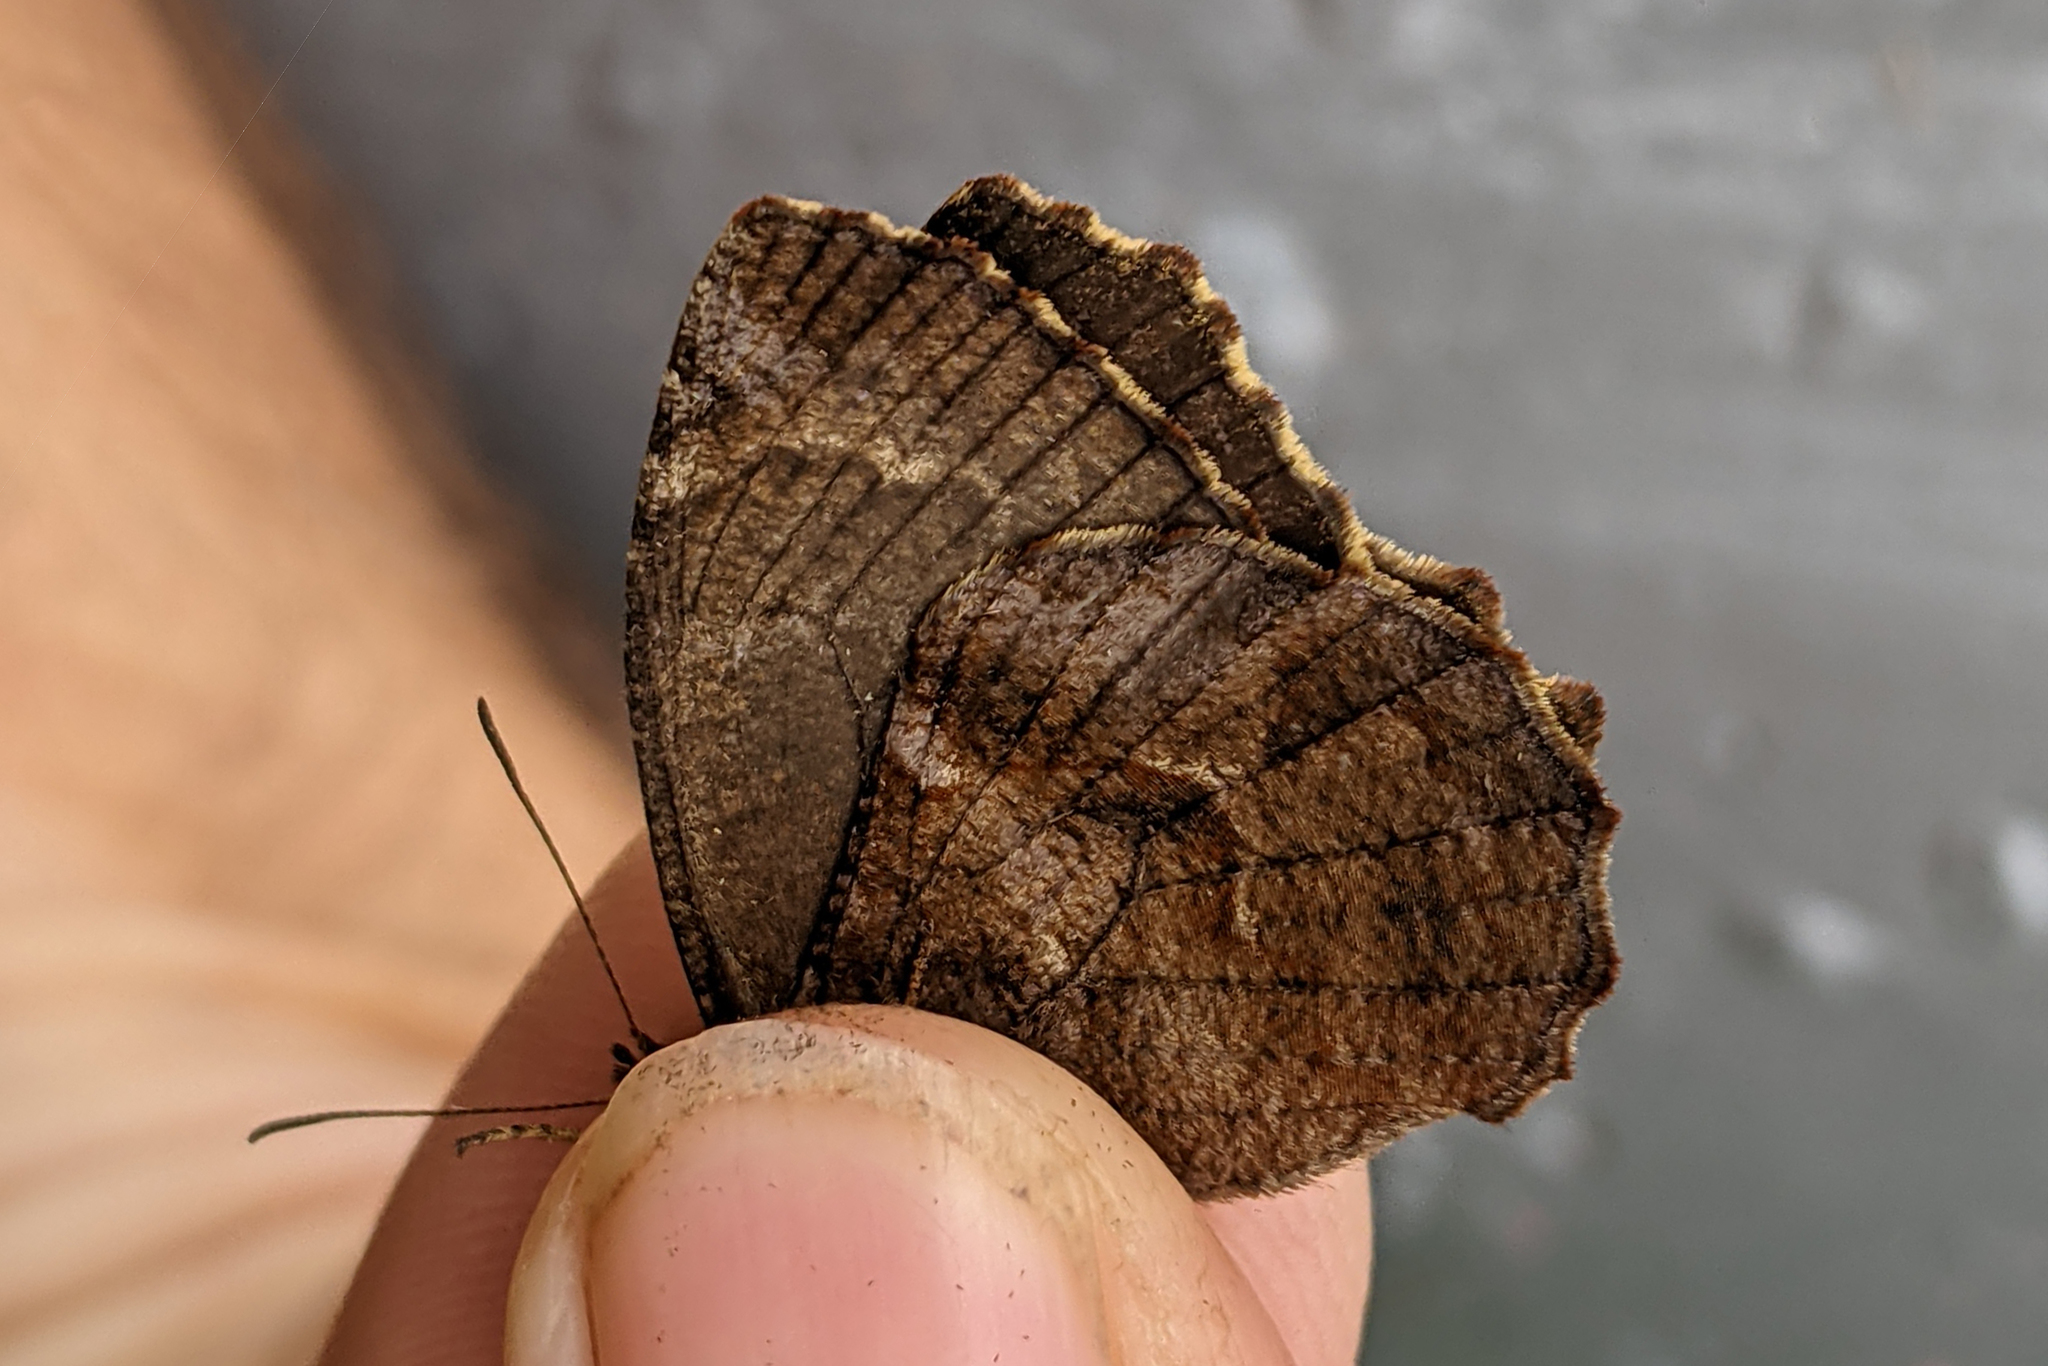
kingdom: Animalia
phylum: Arthropoda
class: Insecta
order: Lepidoptera
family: Nymphalidae
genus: Panyapedaliodes
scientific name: Panyapedaliodes drymaea
